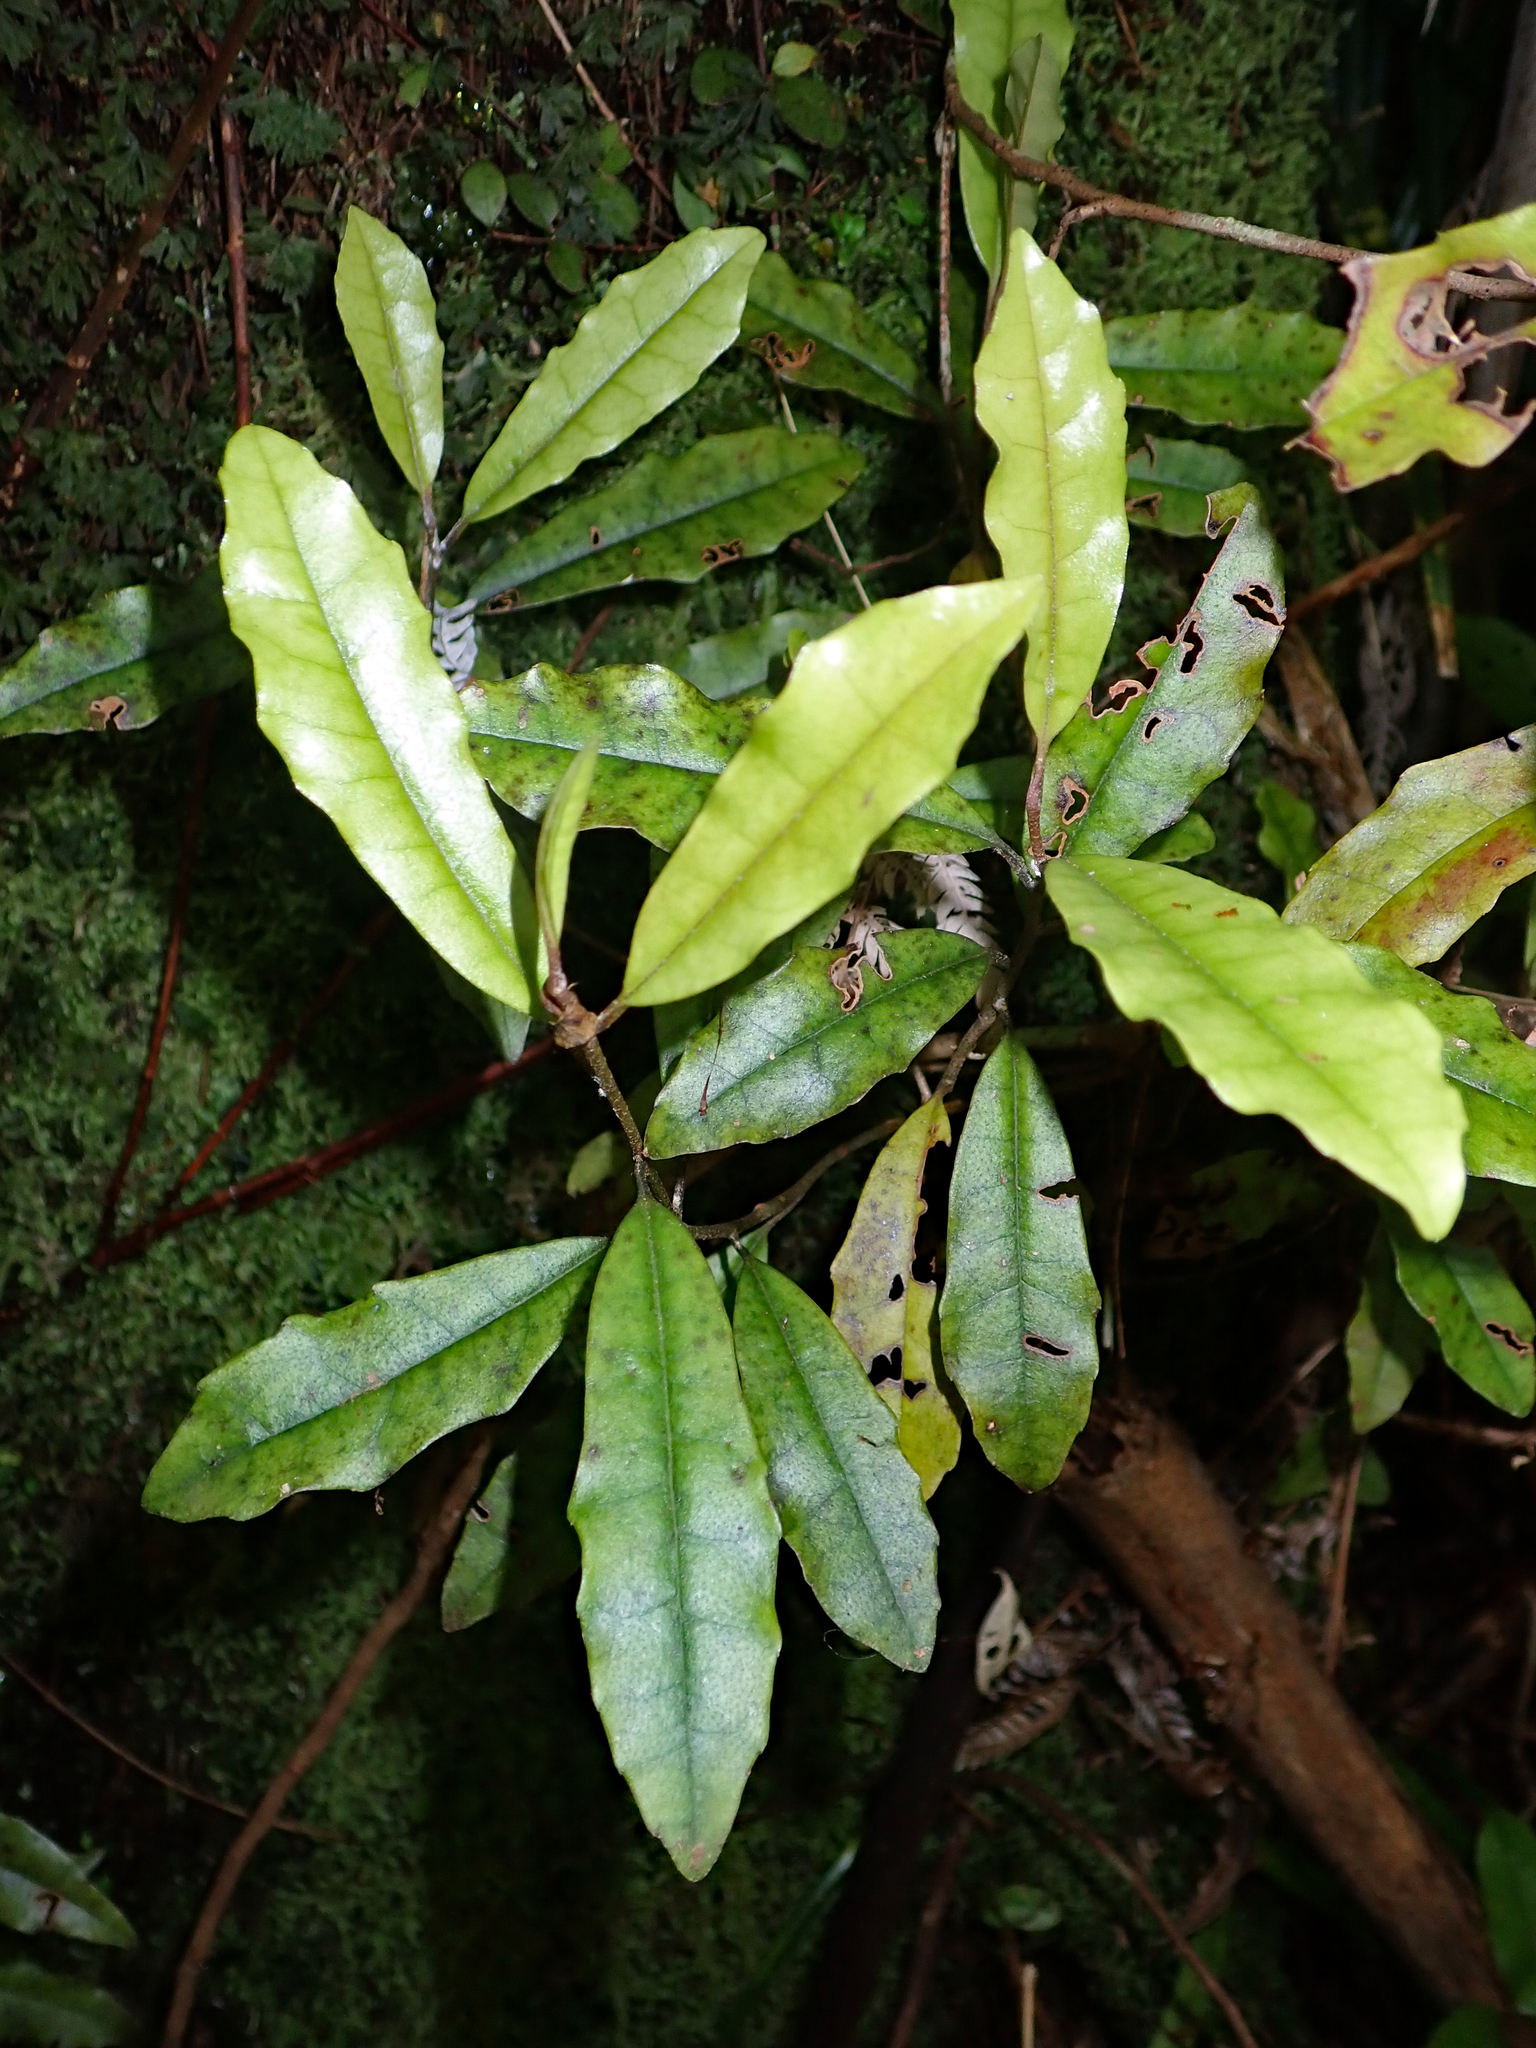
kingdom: Plantae
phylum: Tracheophyta
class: Magnoliopsida
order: Paracryphiales
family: Paracryphiaceae
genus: Quintinia
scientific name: Quintinia serrata
